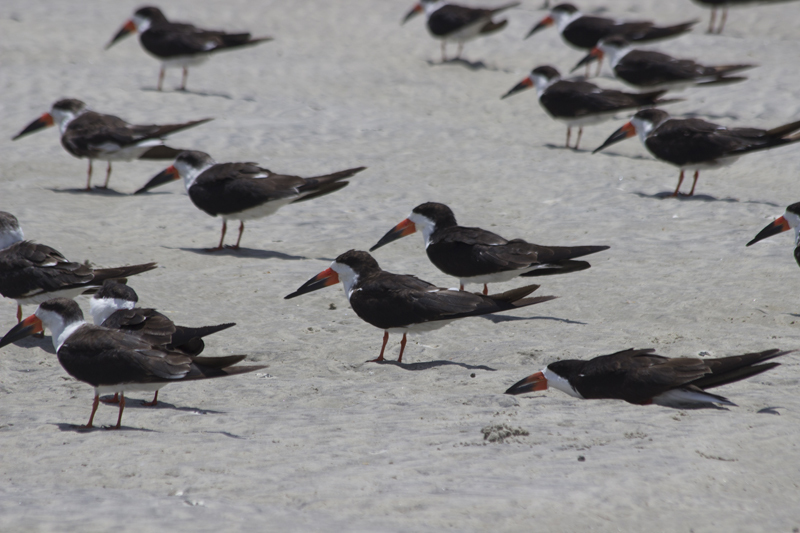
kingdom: Animalia
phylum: Chordata
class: Aves
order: Charadriiformes
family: Laridae
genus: Rynchops
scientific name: Rynchops niger
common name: Black skimmer
